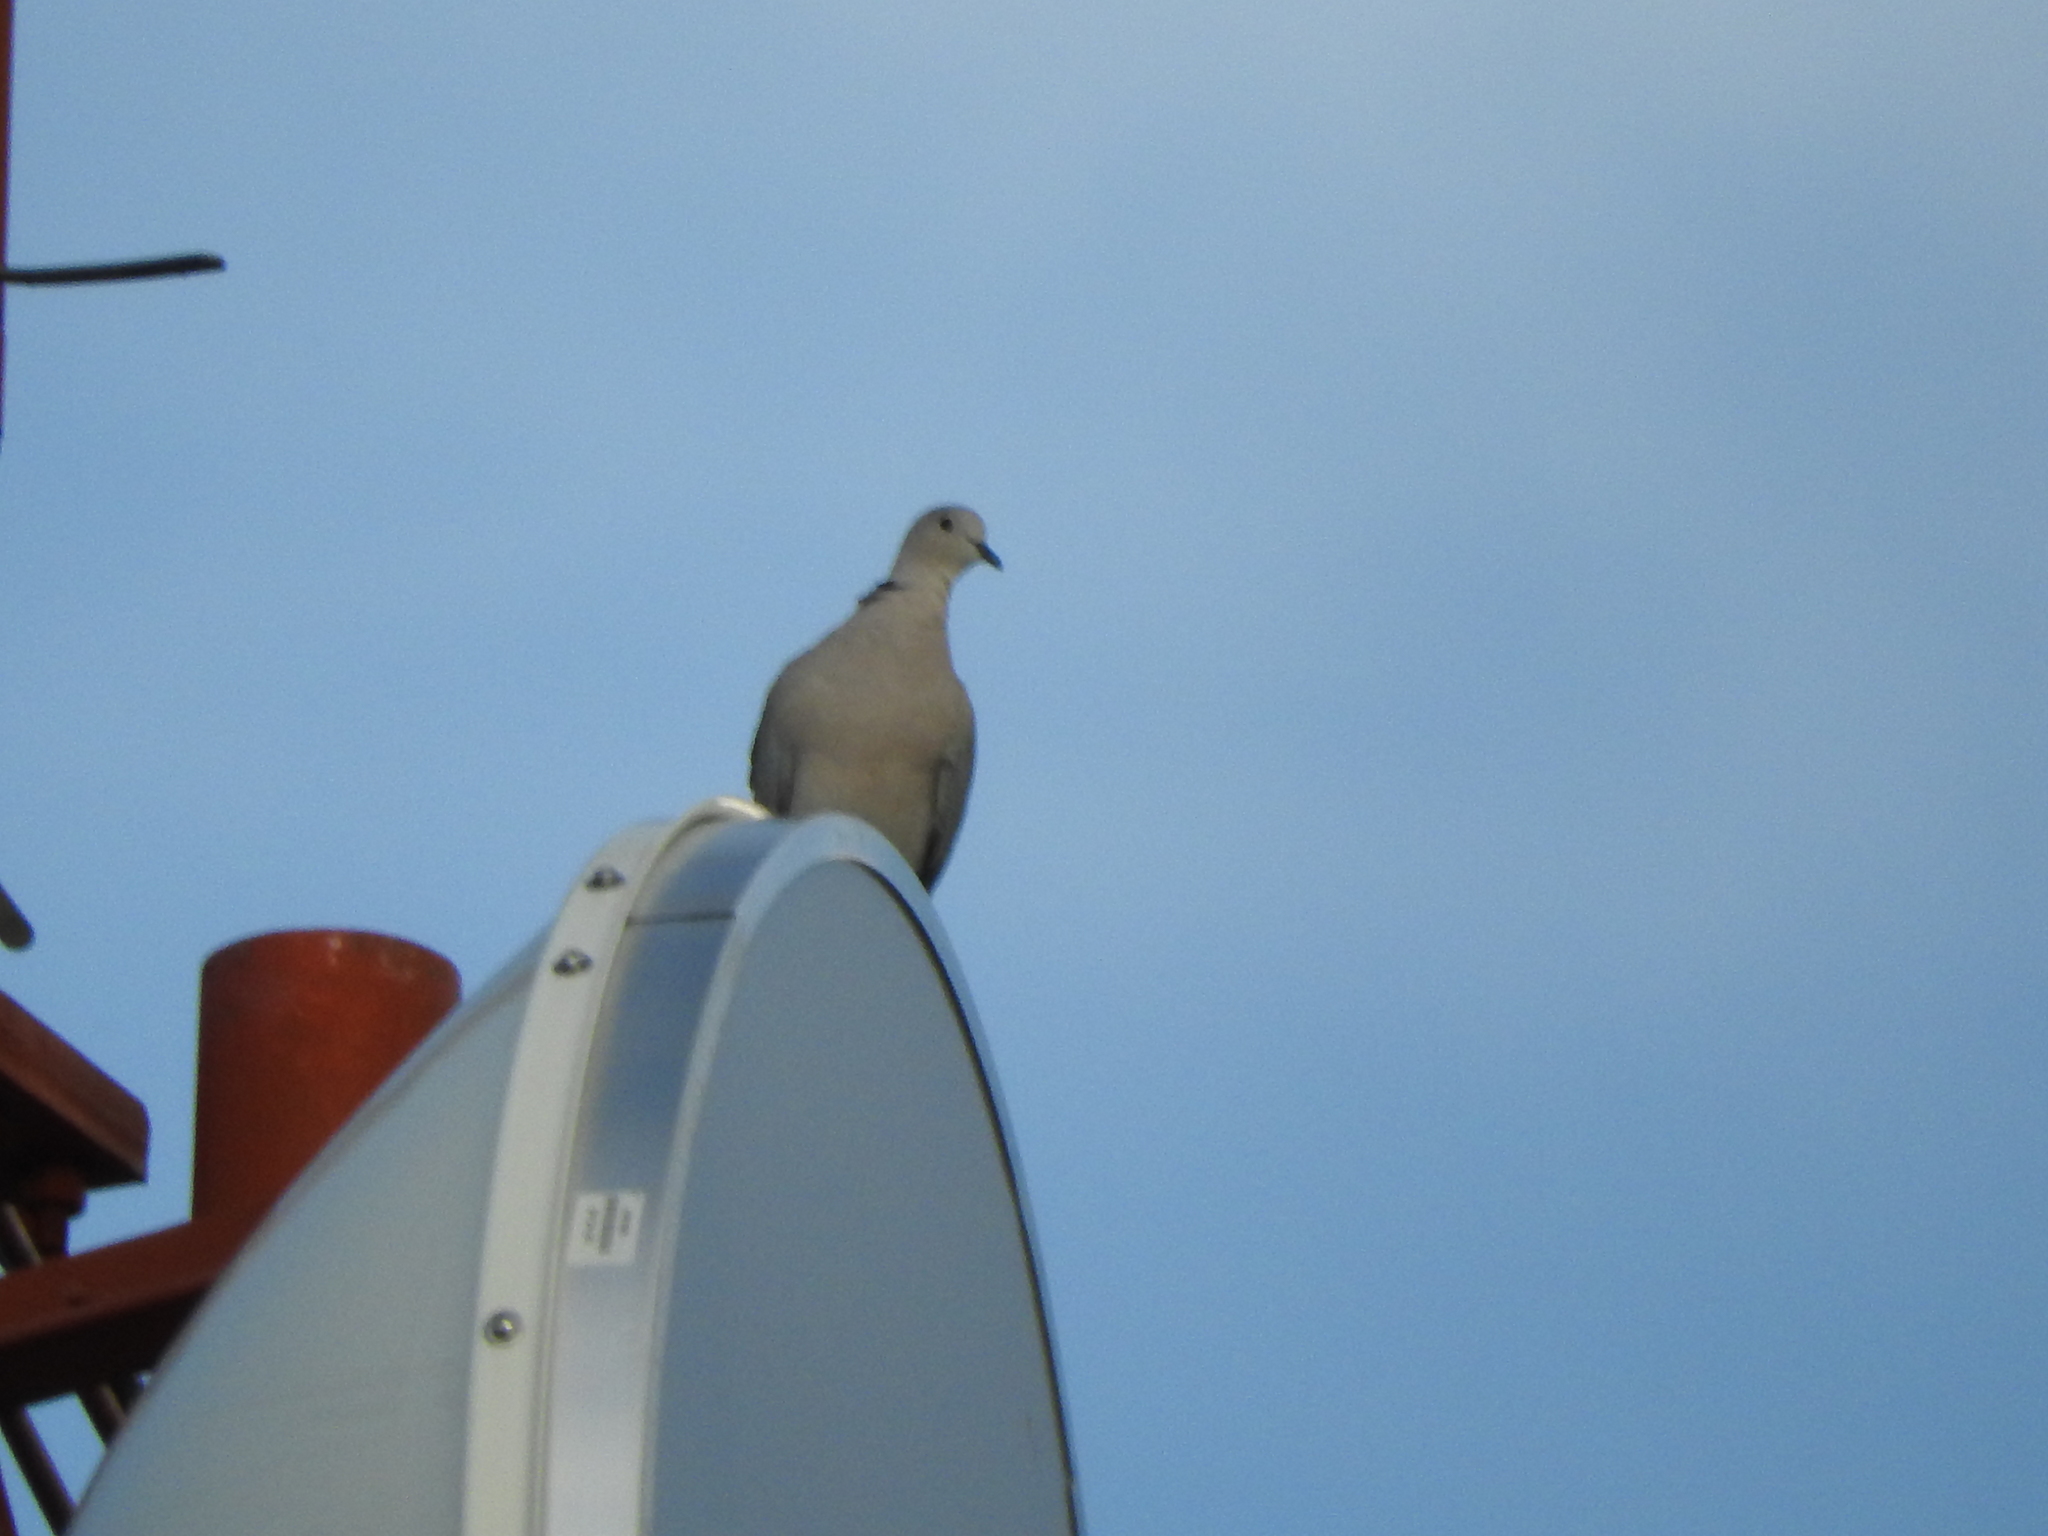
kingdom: Animalia
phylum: Chordata
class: Aves
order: Columbiformes
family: Columbidae
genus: Streptopelia
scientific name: Streptopelia decaocto
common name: Eurasian collared dove
